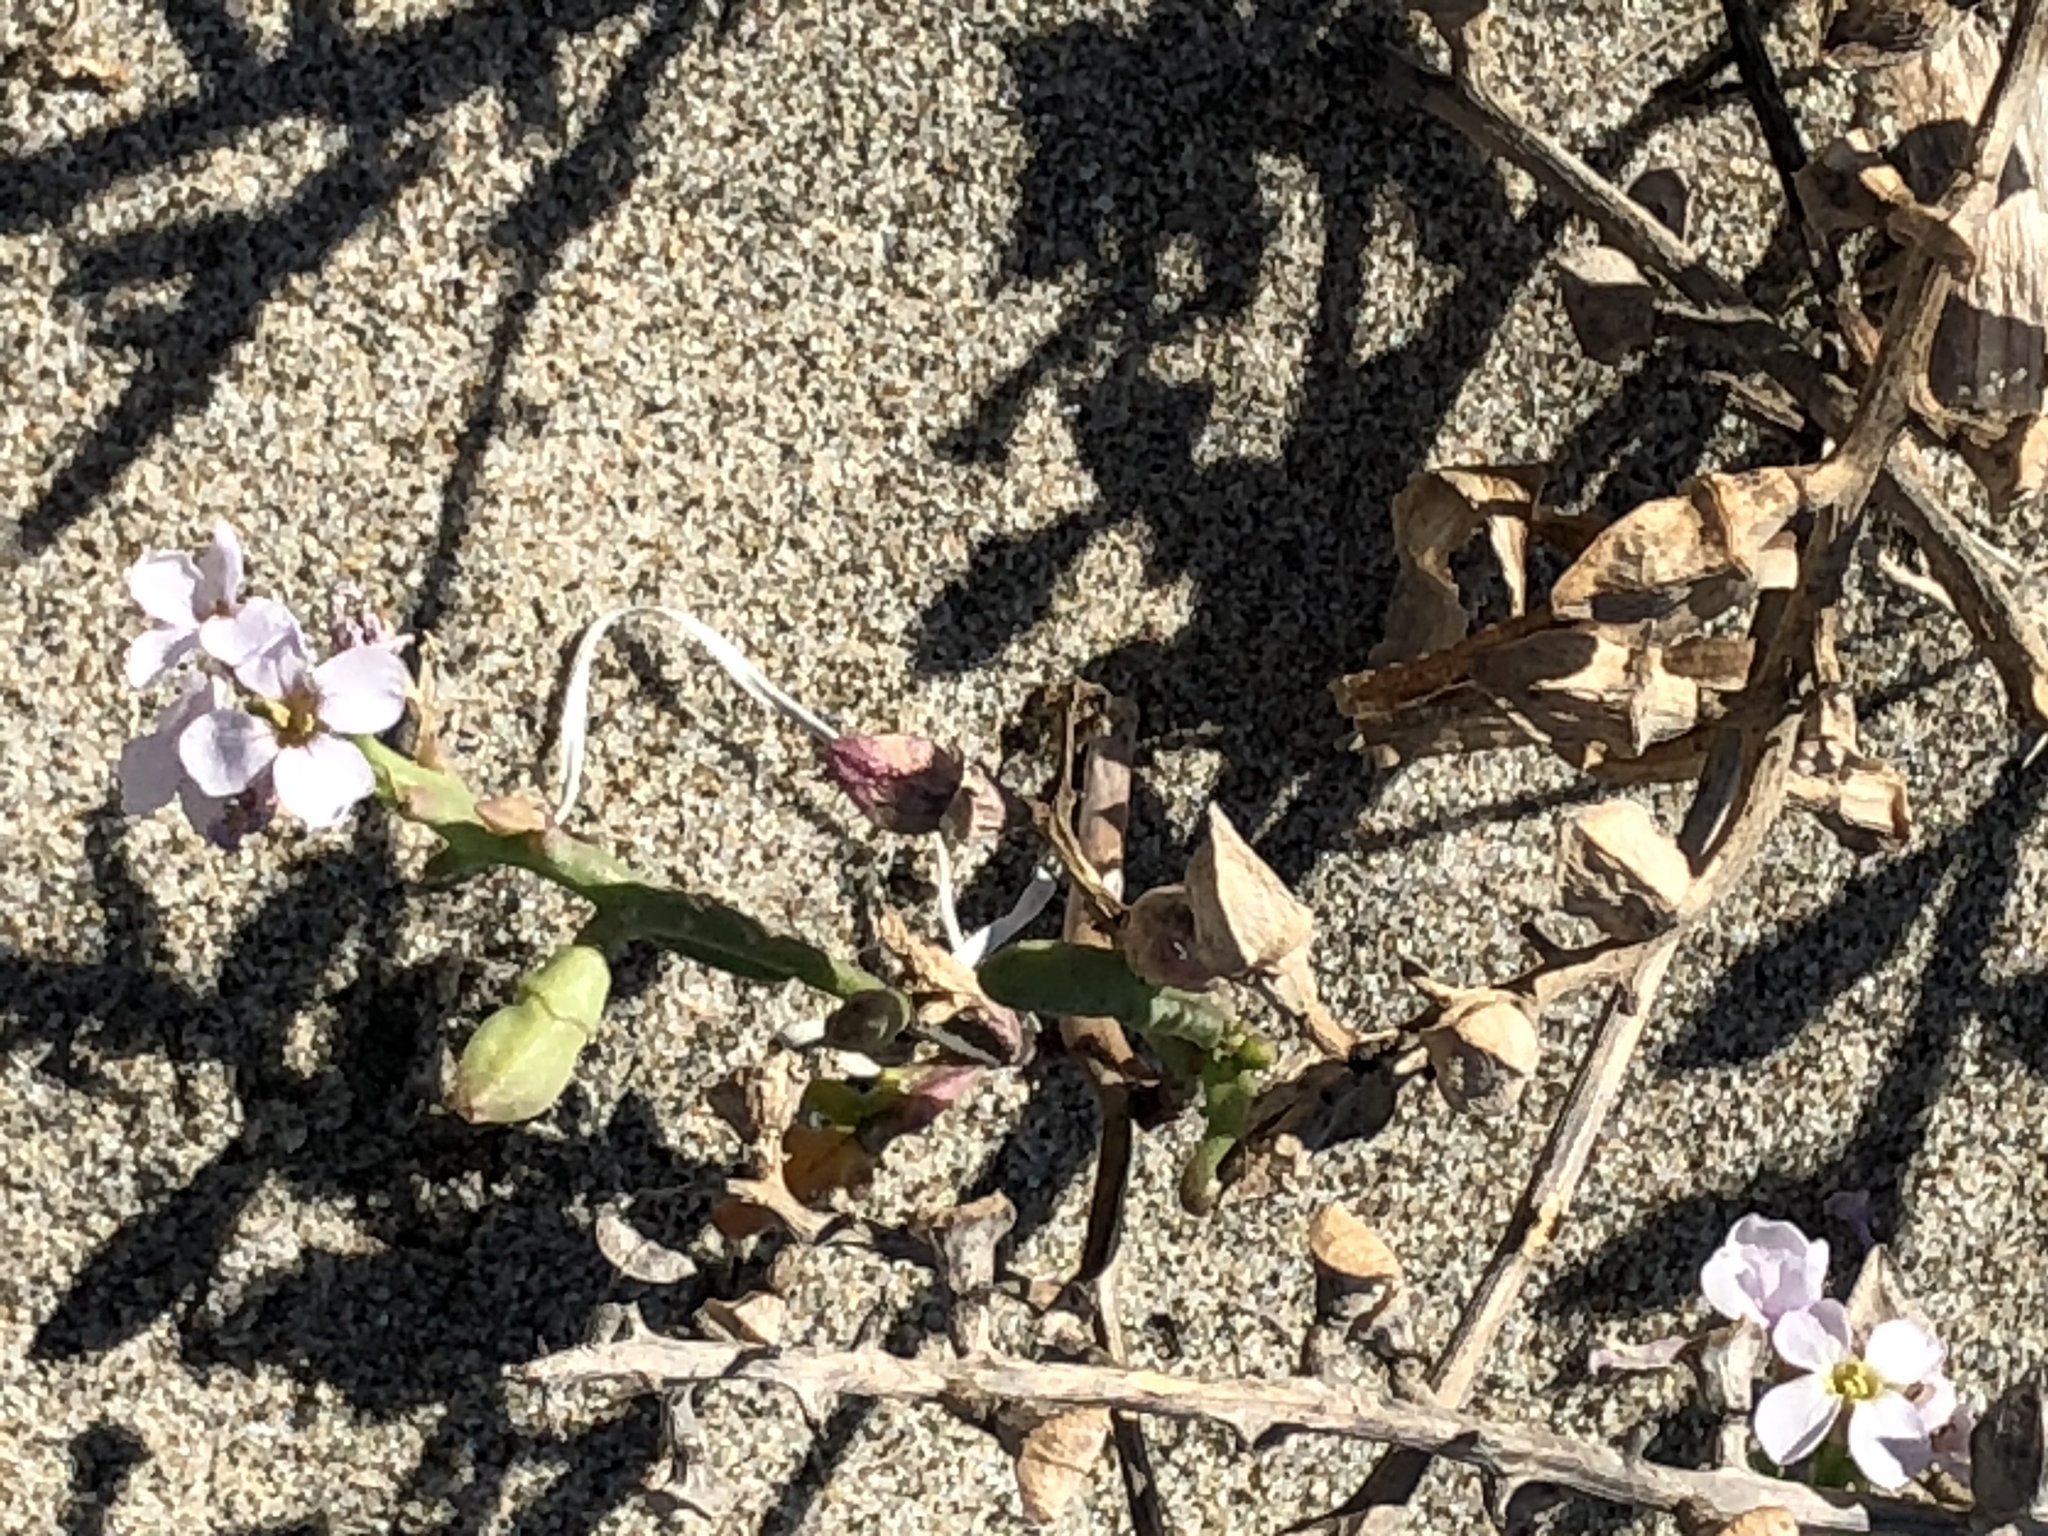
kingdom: Plantae
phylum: Tracheophyta
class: Magnoliopsida
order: Brassicales
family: Brassicaceae
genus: Cakile
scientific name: Cakile maritima
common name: Sea rocket
